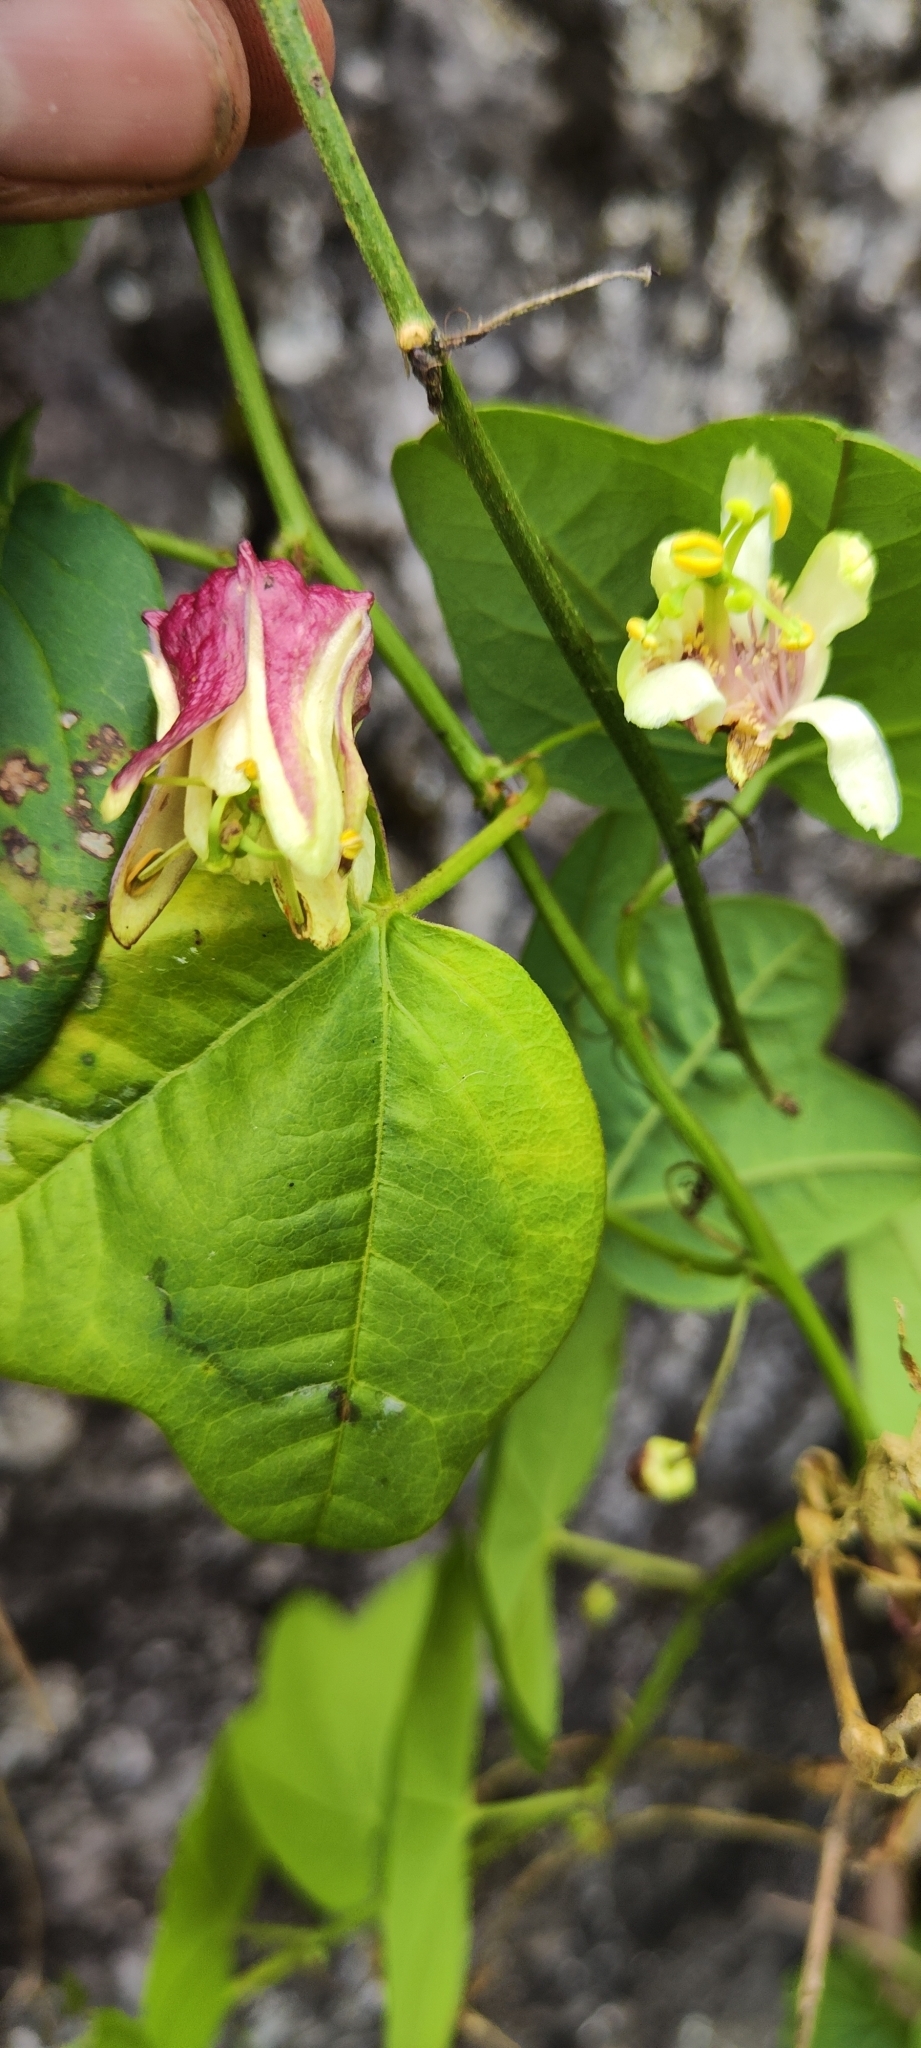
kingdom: Plantae
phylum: Tracheophyta
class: Magnoliopsida
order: Malpighiales
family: Passifloraceae
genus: Passiflora
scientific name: Passiflora sagasteguii
